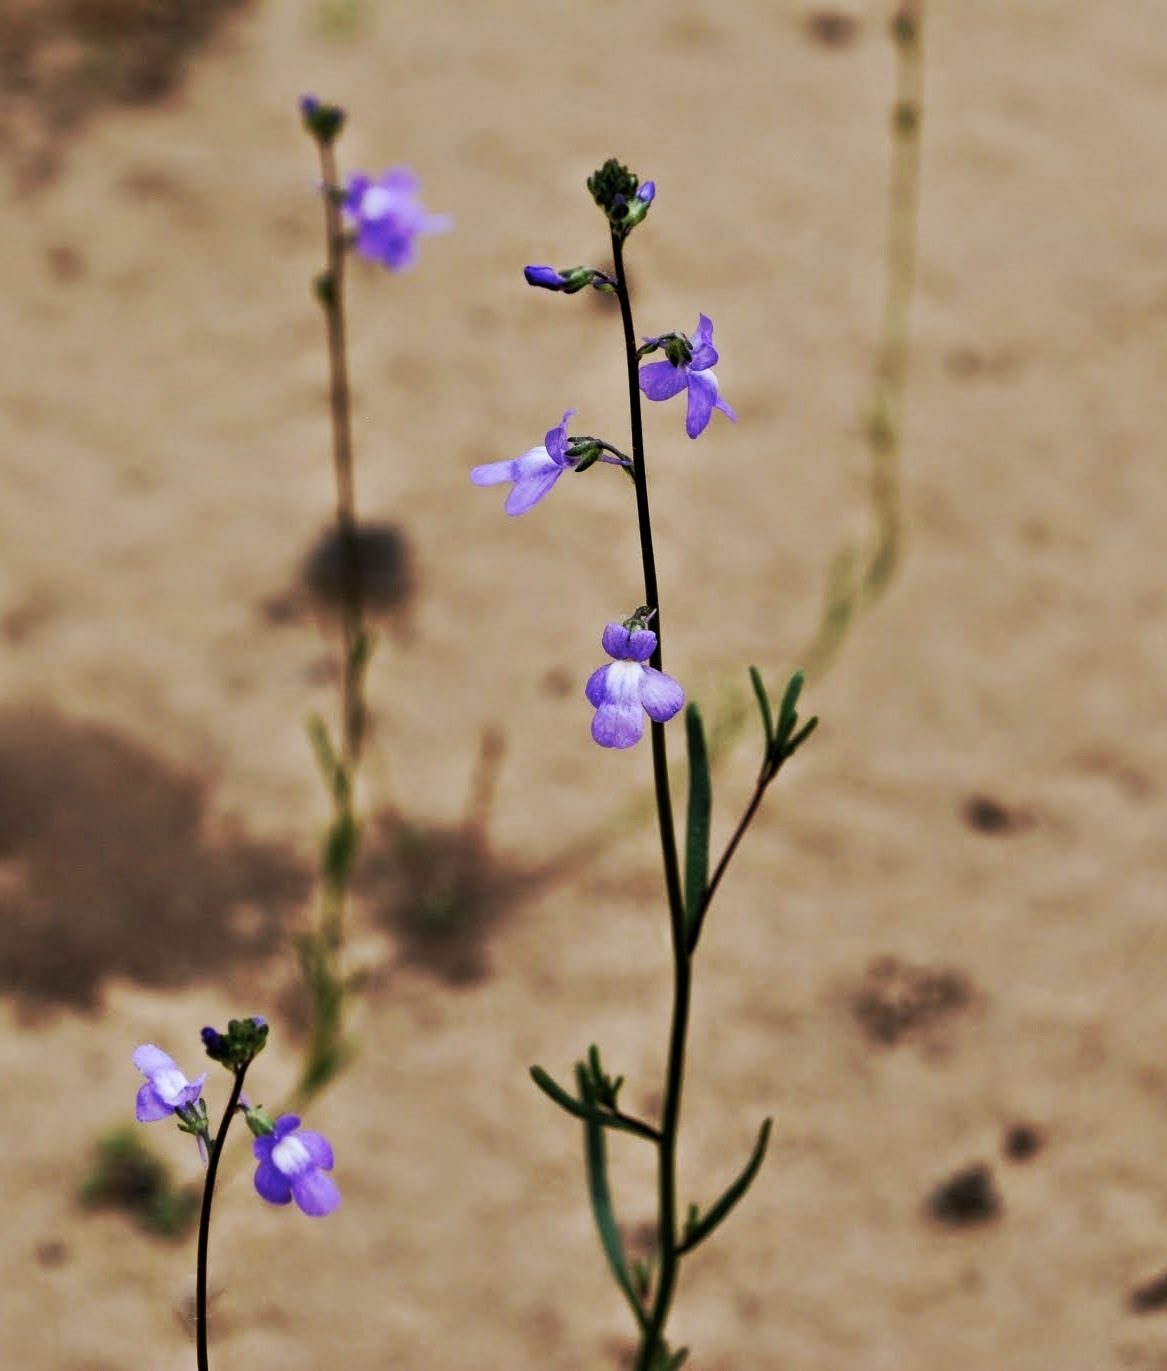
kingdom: Plantae
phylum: Tracheophyta
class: Magnoliopsida
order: Lamiales
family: Plantaginaceae
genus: Nuttallanthus
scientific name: Nuttallanthus canadensis
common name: Blue toadflax
